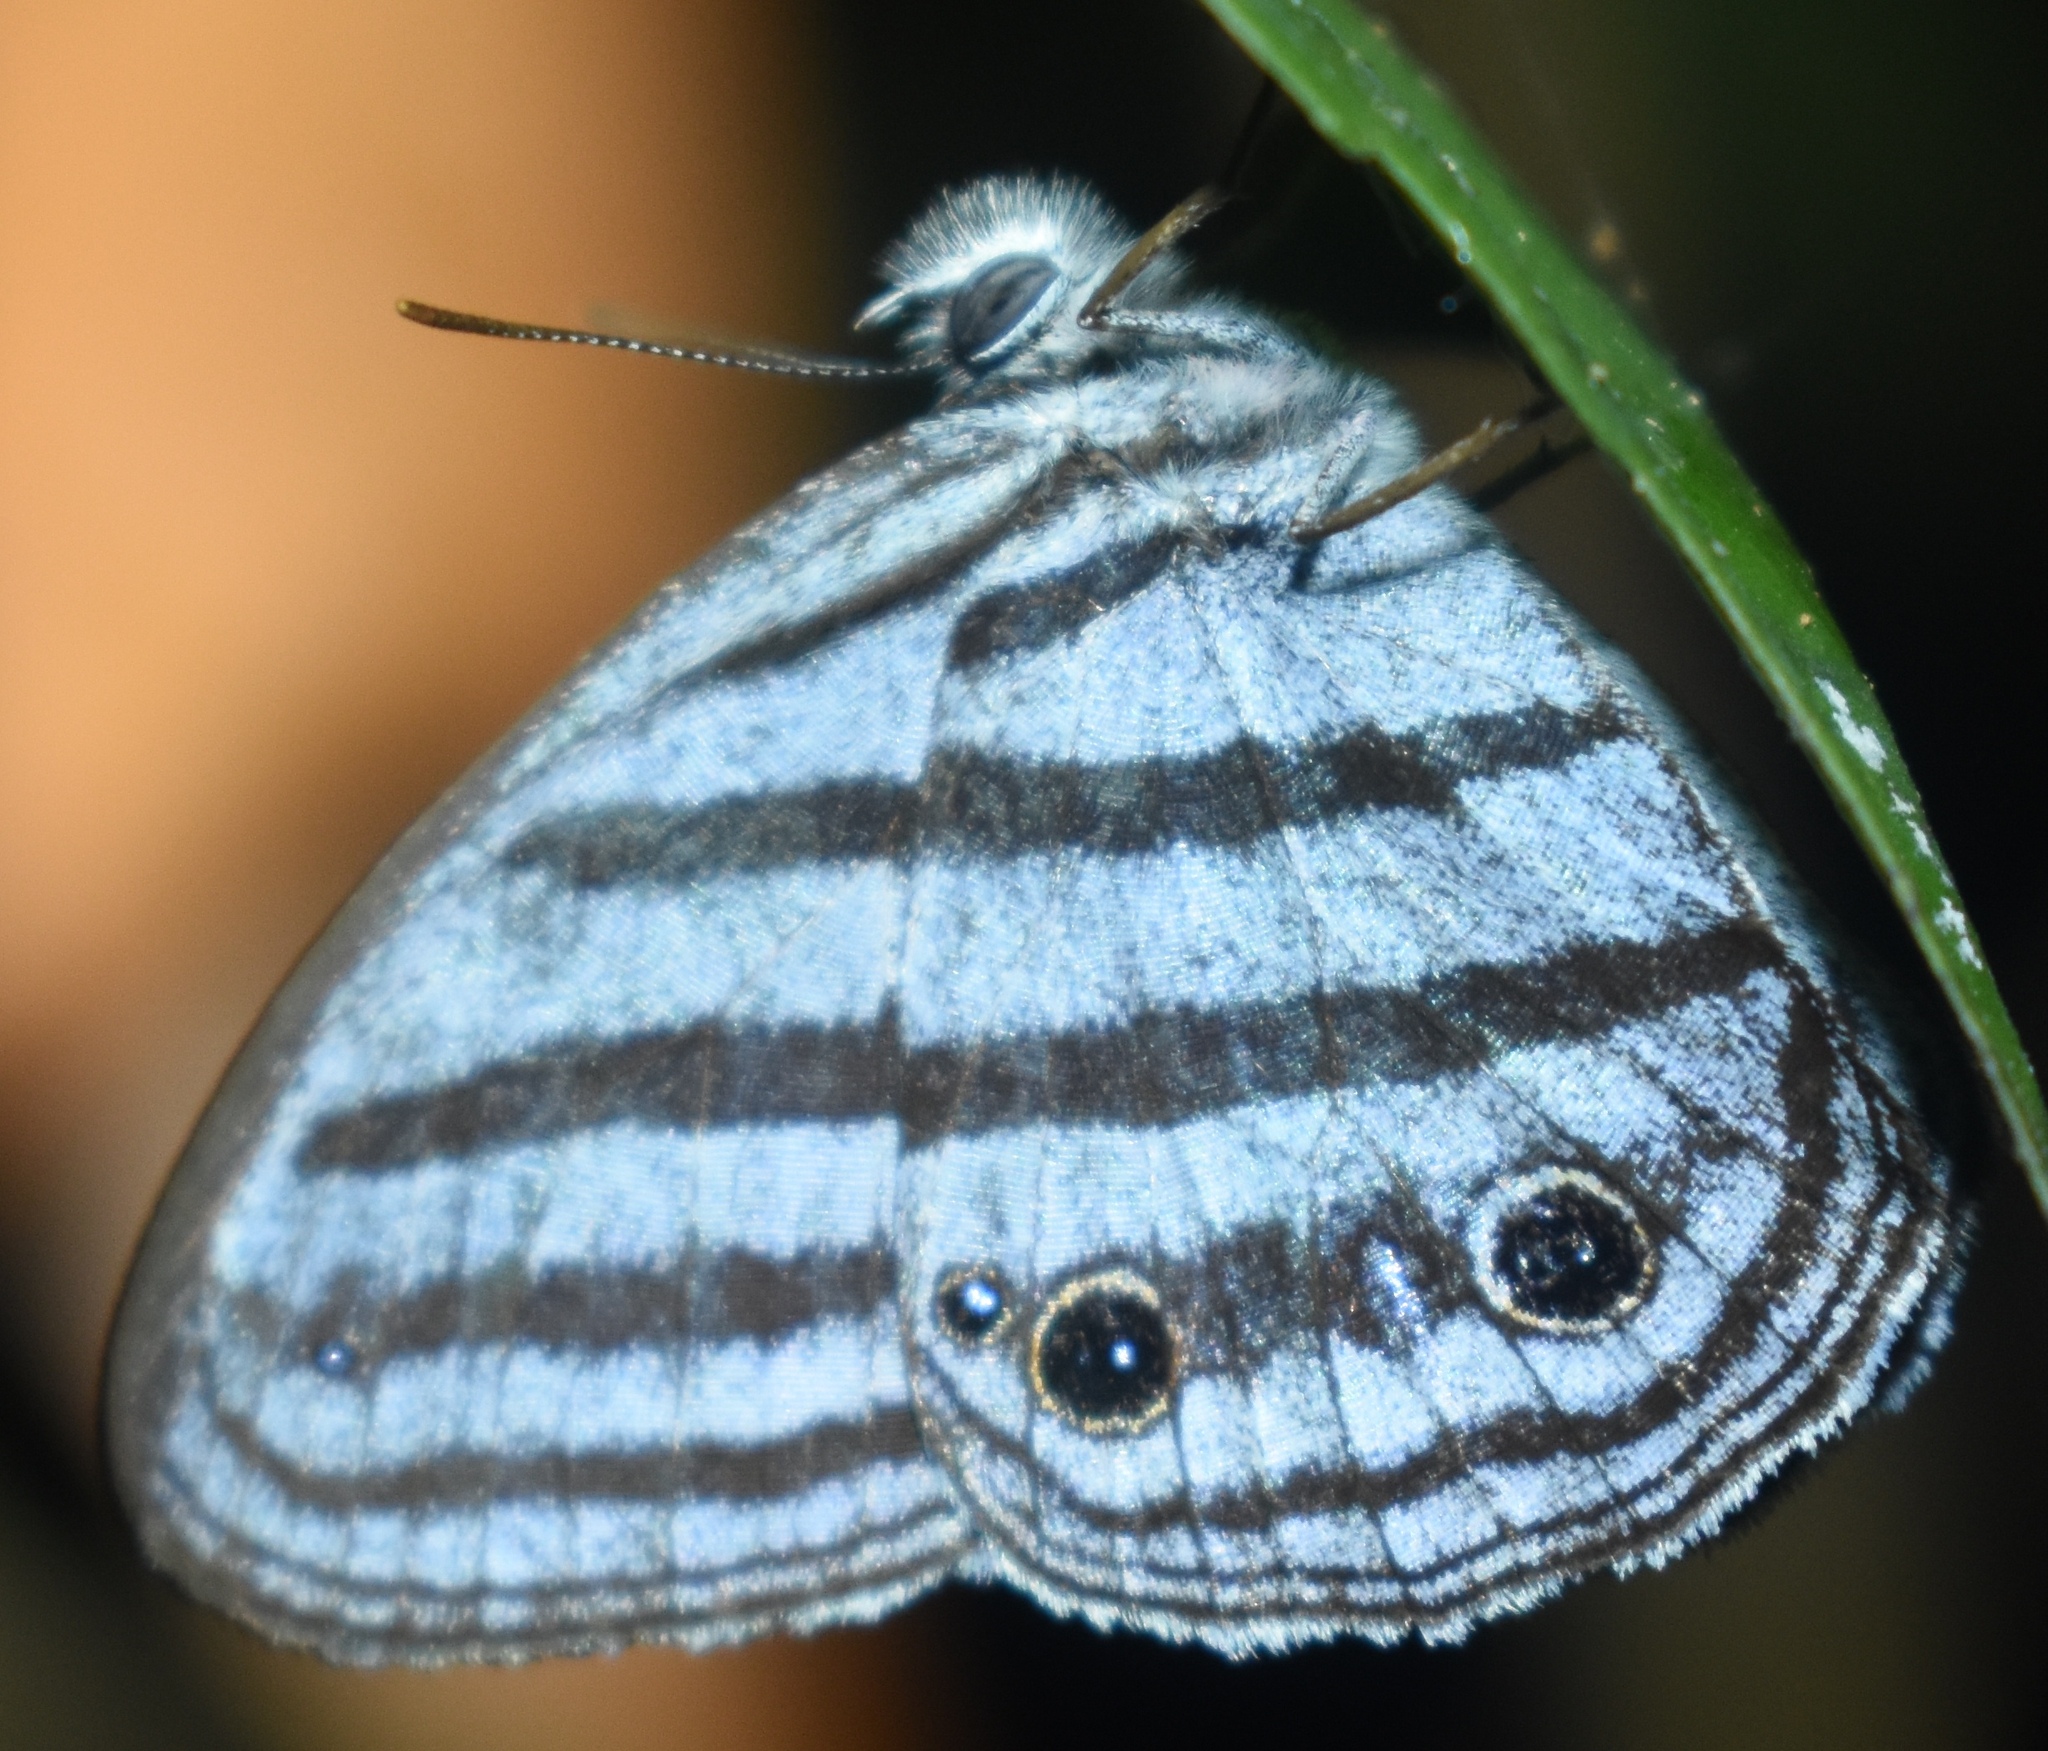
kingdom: Animalia
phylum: Arthropoda
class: Insecta
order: Lepidoptera
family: Nymphalidae
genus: Paryphthimoides
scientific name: Paryphthimoides brixius
